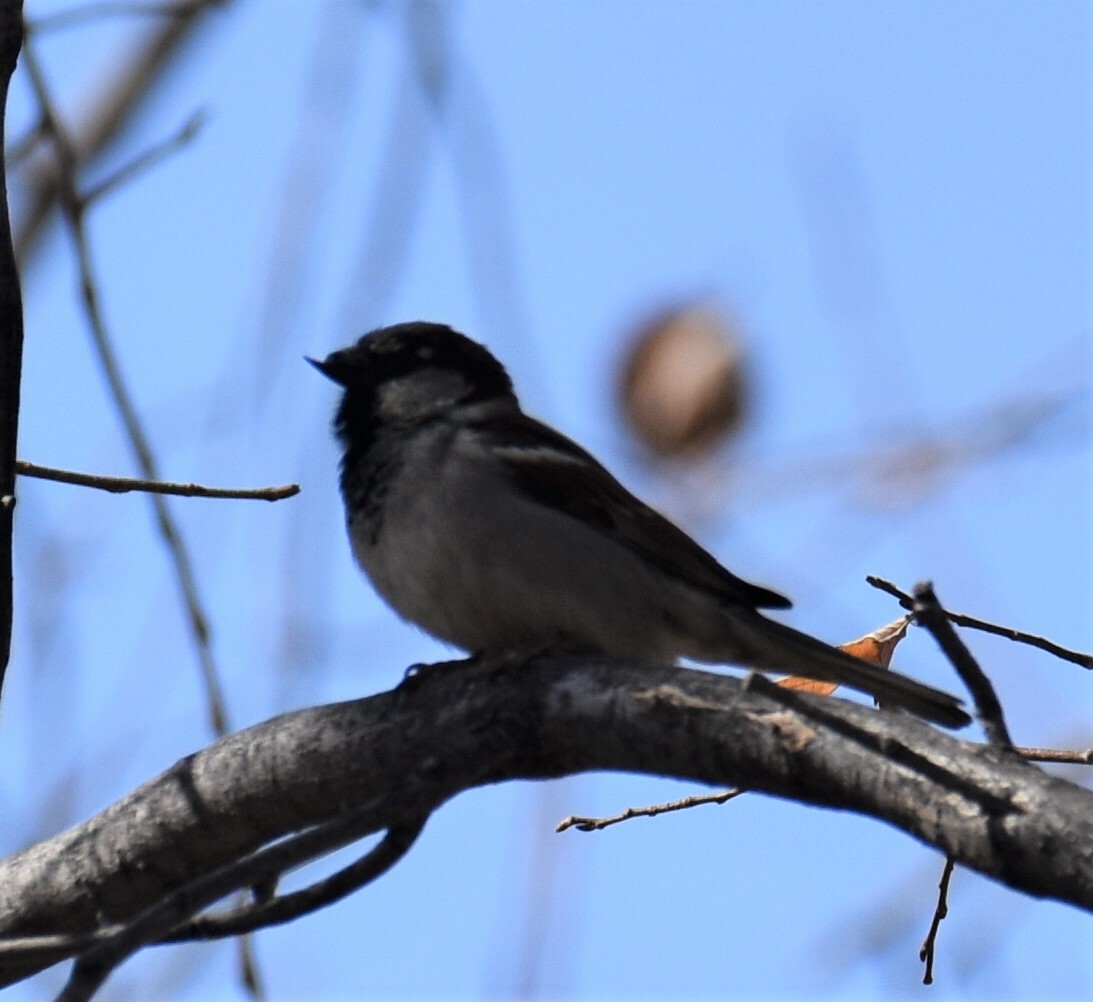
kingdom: Animalia
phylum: Chordata
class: Aves
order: Passeriformes
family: Passeridae
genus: Passer
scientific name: Passer domesticus
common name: House sparrow
